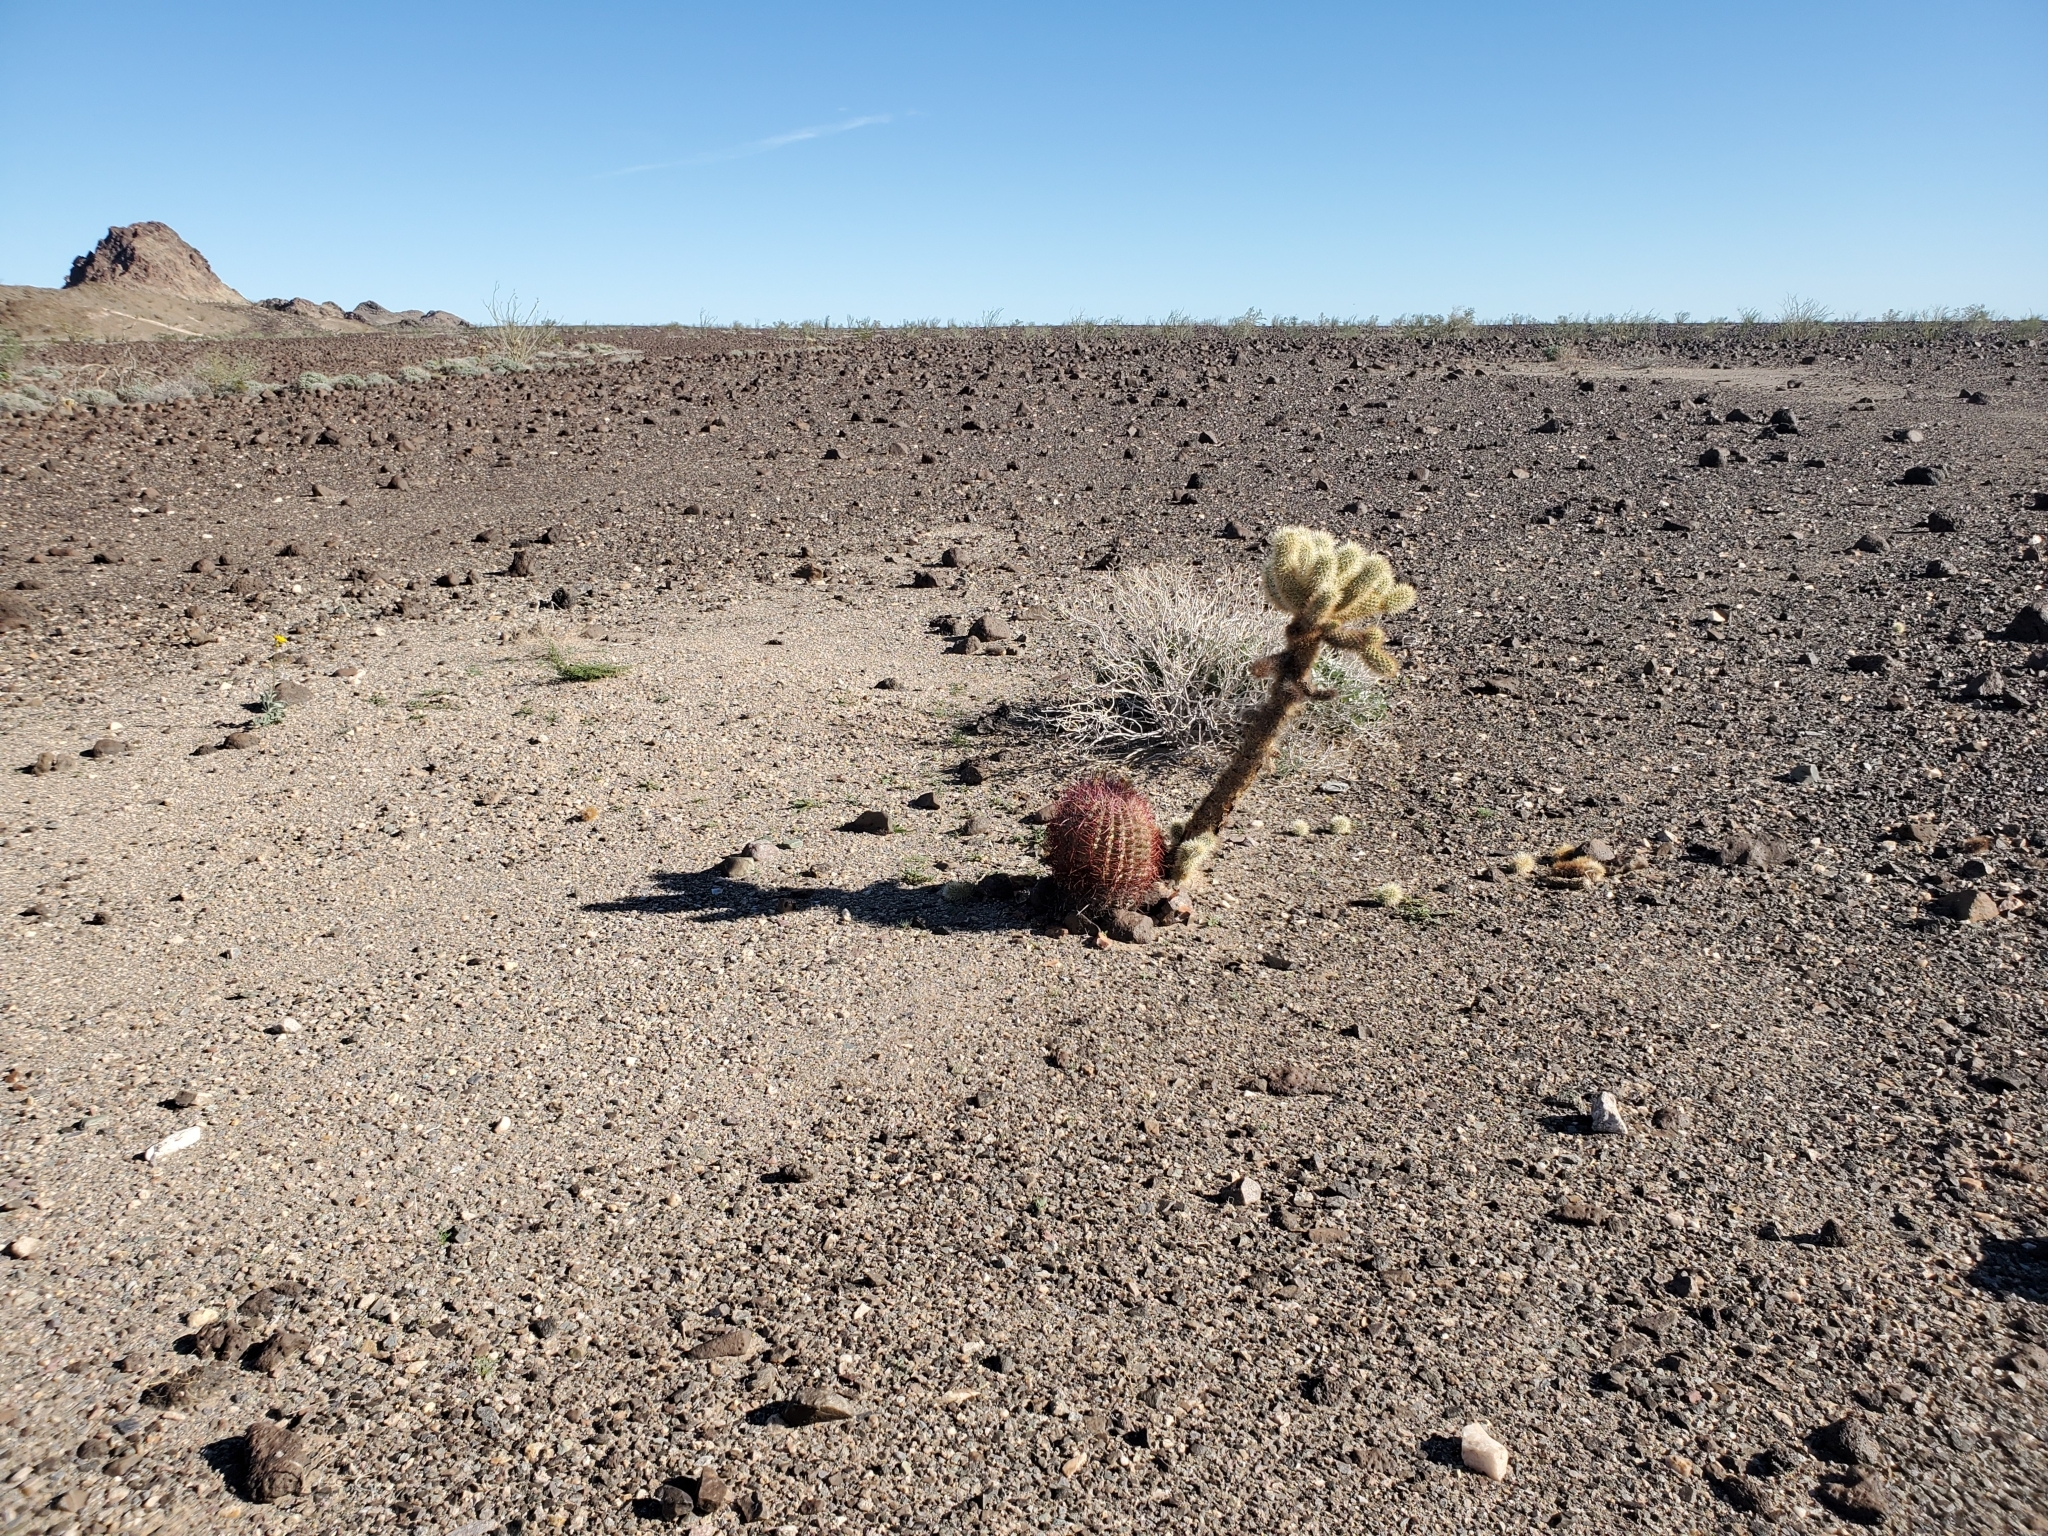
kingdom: Plantae
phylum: Tracheophyta
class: Magnoliopsida
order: Caryophyllales
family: Cactaceae
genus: Ferocactus
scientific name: Ferocactus cylindraceus
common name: California barrel cactus
